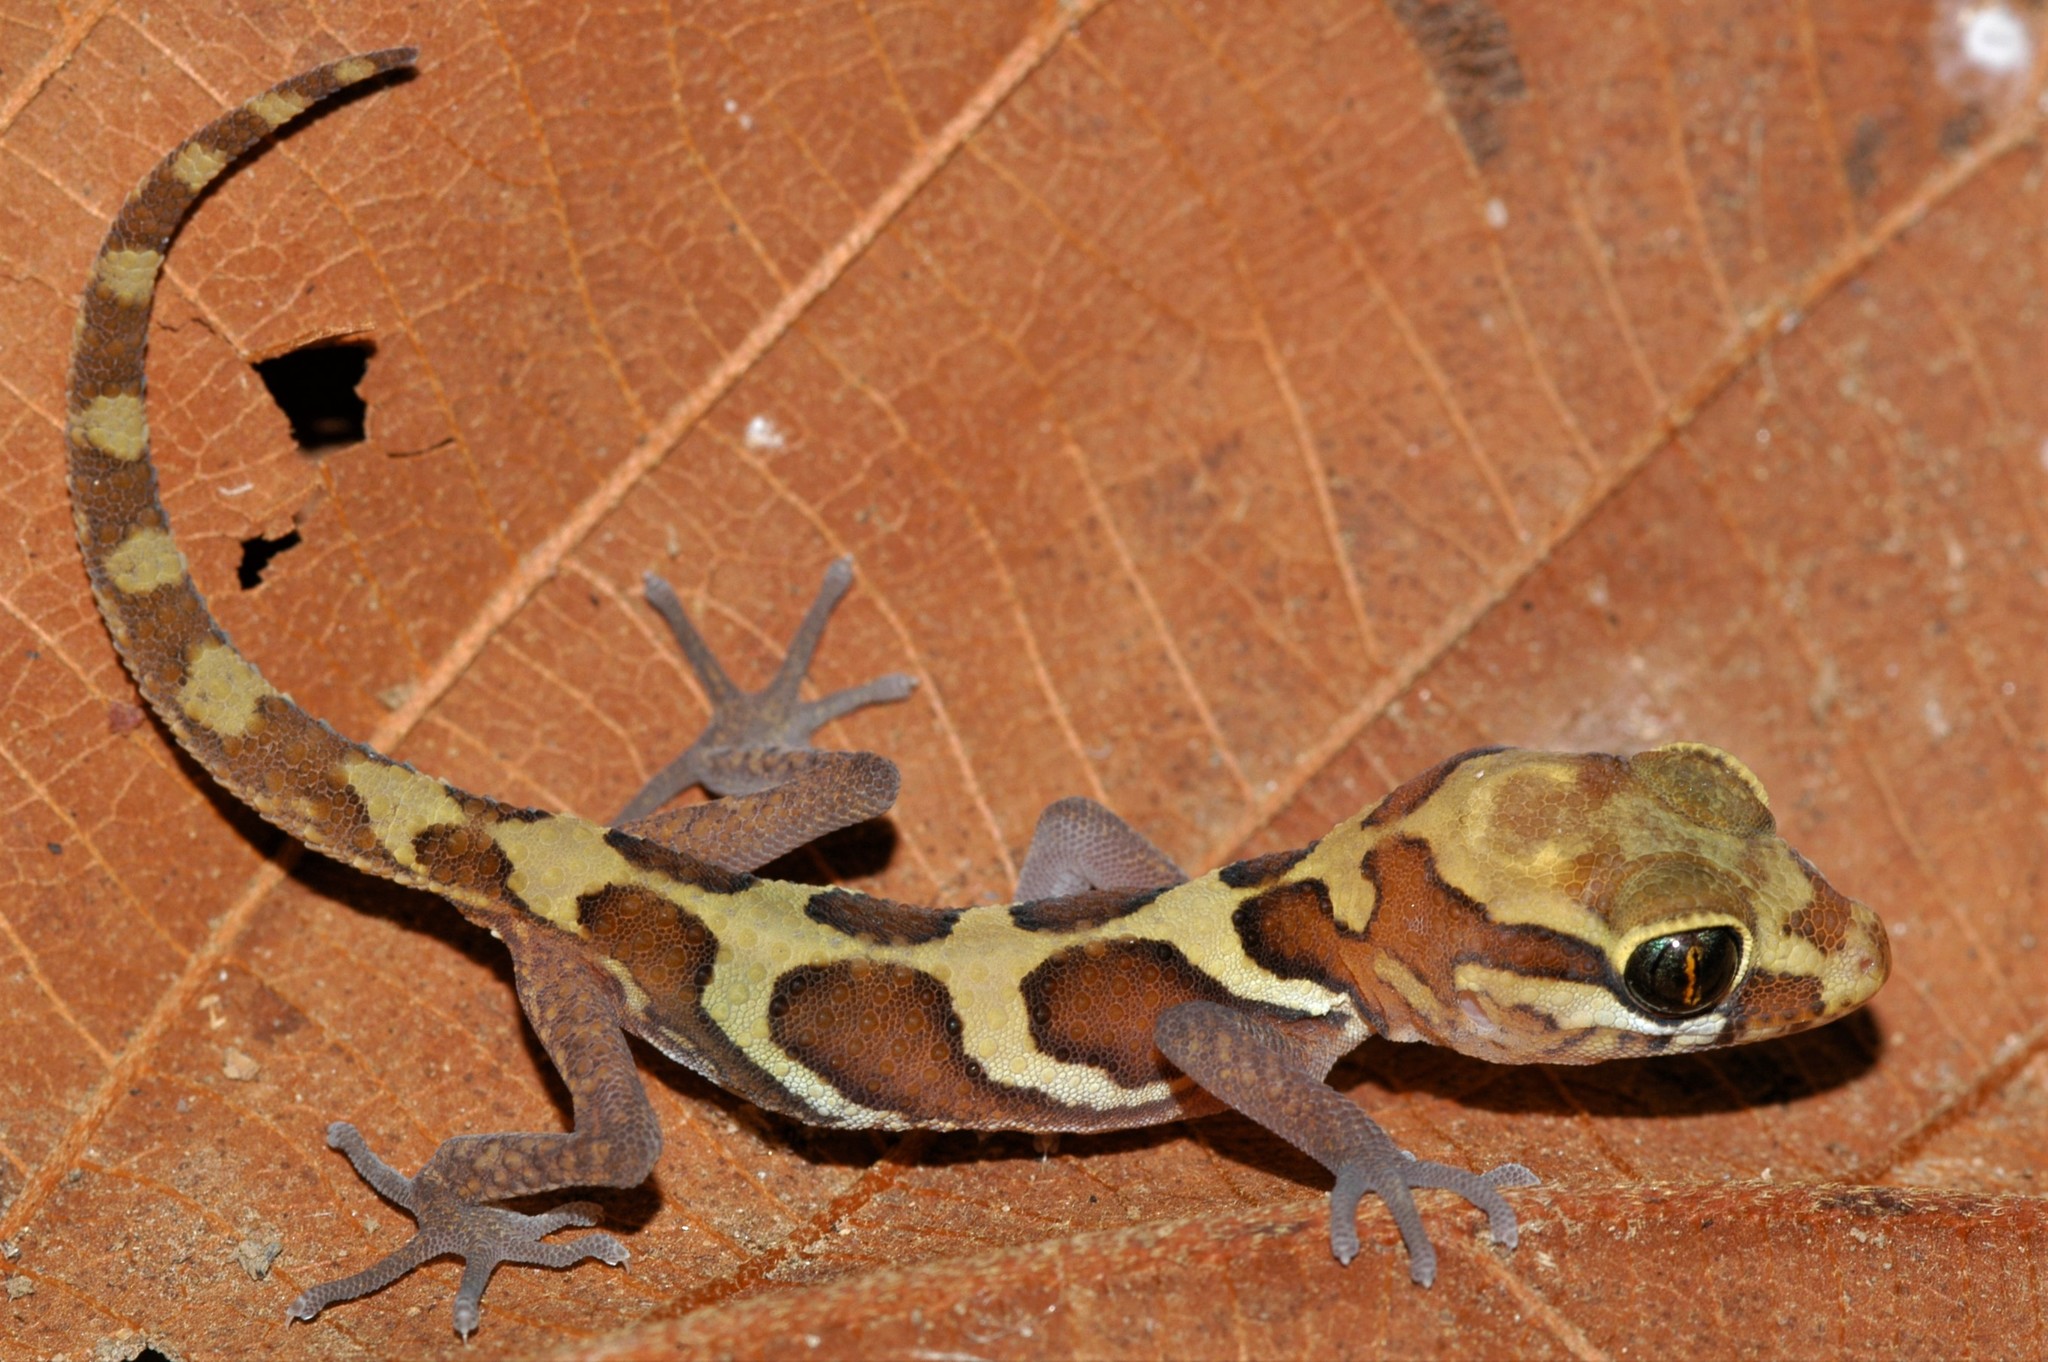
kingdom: Animalia
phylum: Chordata
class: Squamata
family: Gekkonidae
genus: Paroedura
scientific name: Paroedura picta
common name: Panther gecko
